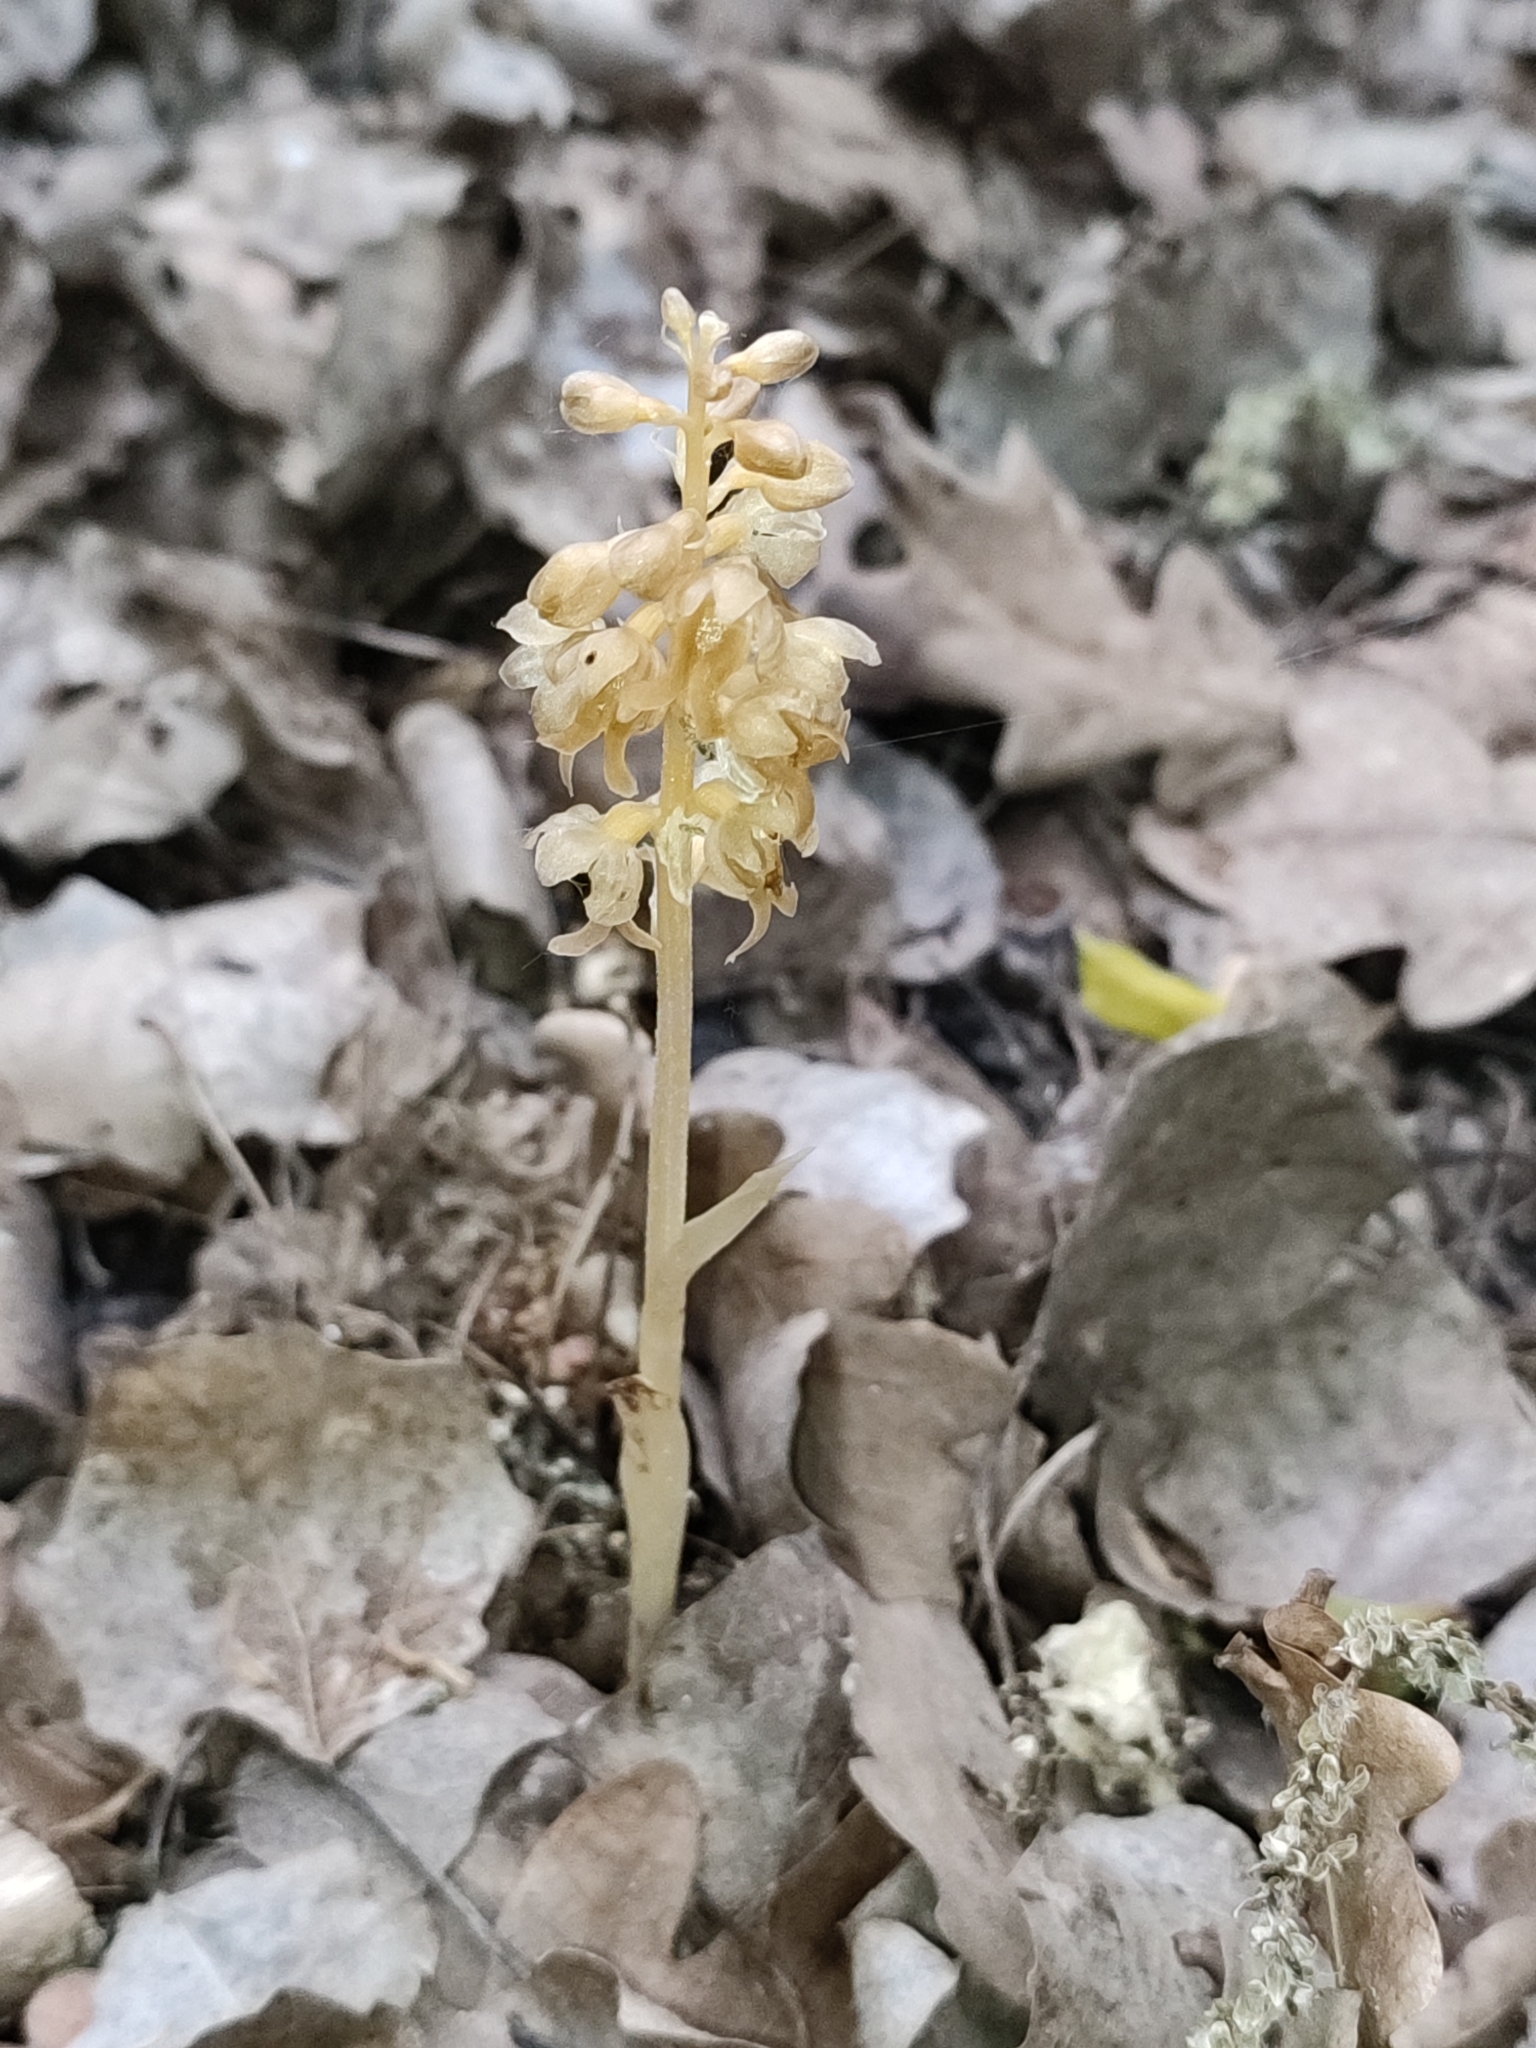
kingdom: Plantae
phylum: Tracheophyta
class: Liliopsida
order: Asparagales
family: Orchidaceae
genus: Neottia
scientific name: Neottia nidus-avis
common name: Bird's-nest orchid
